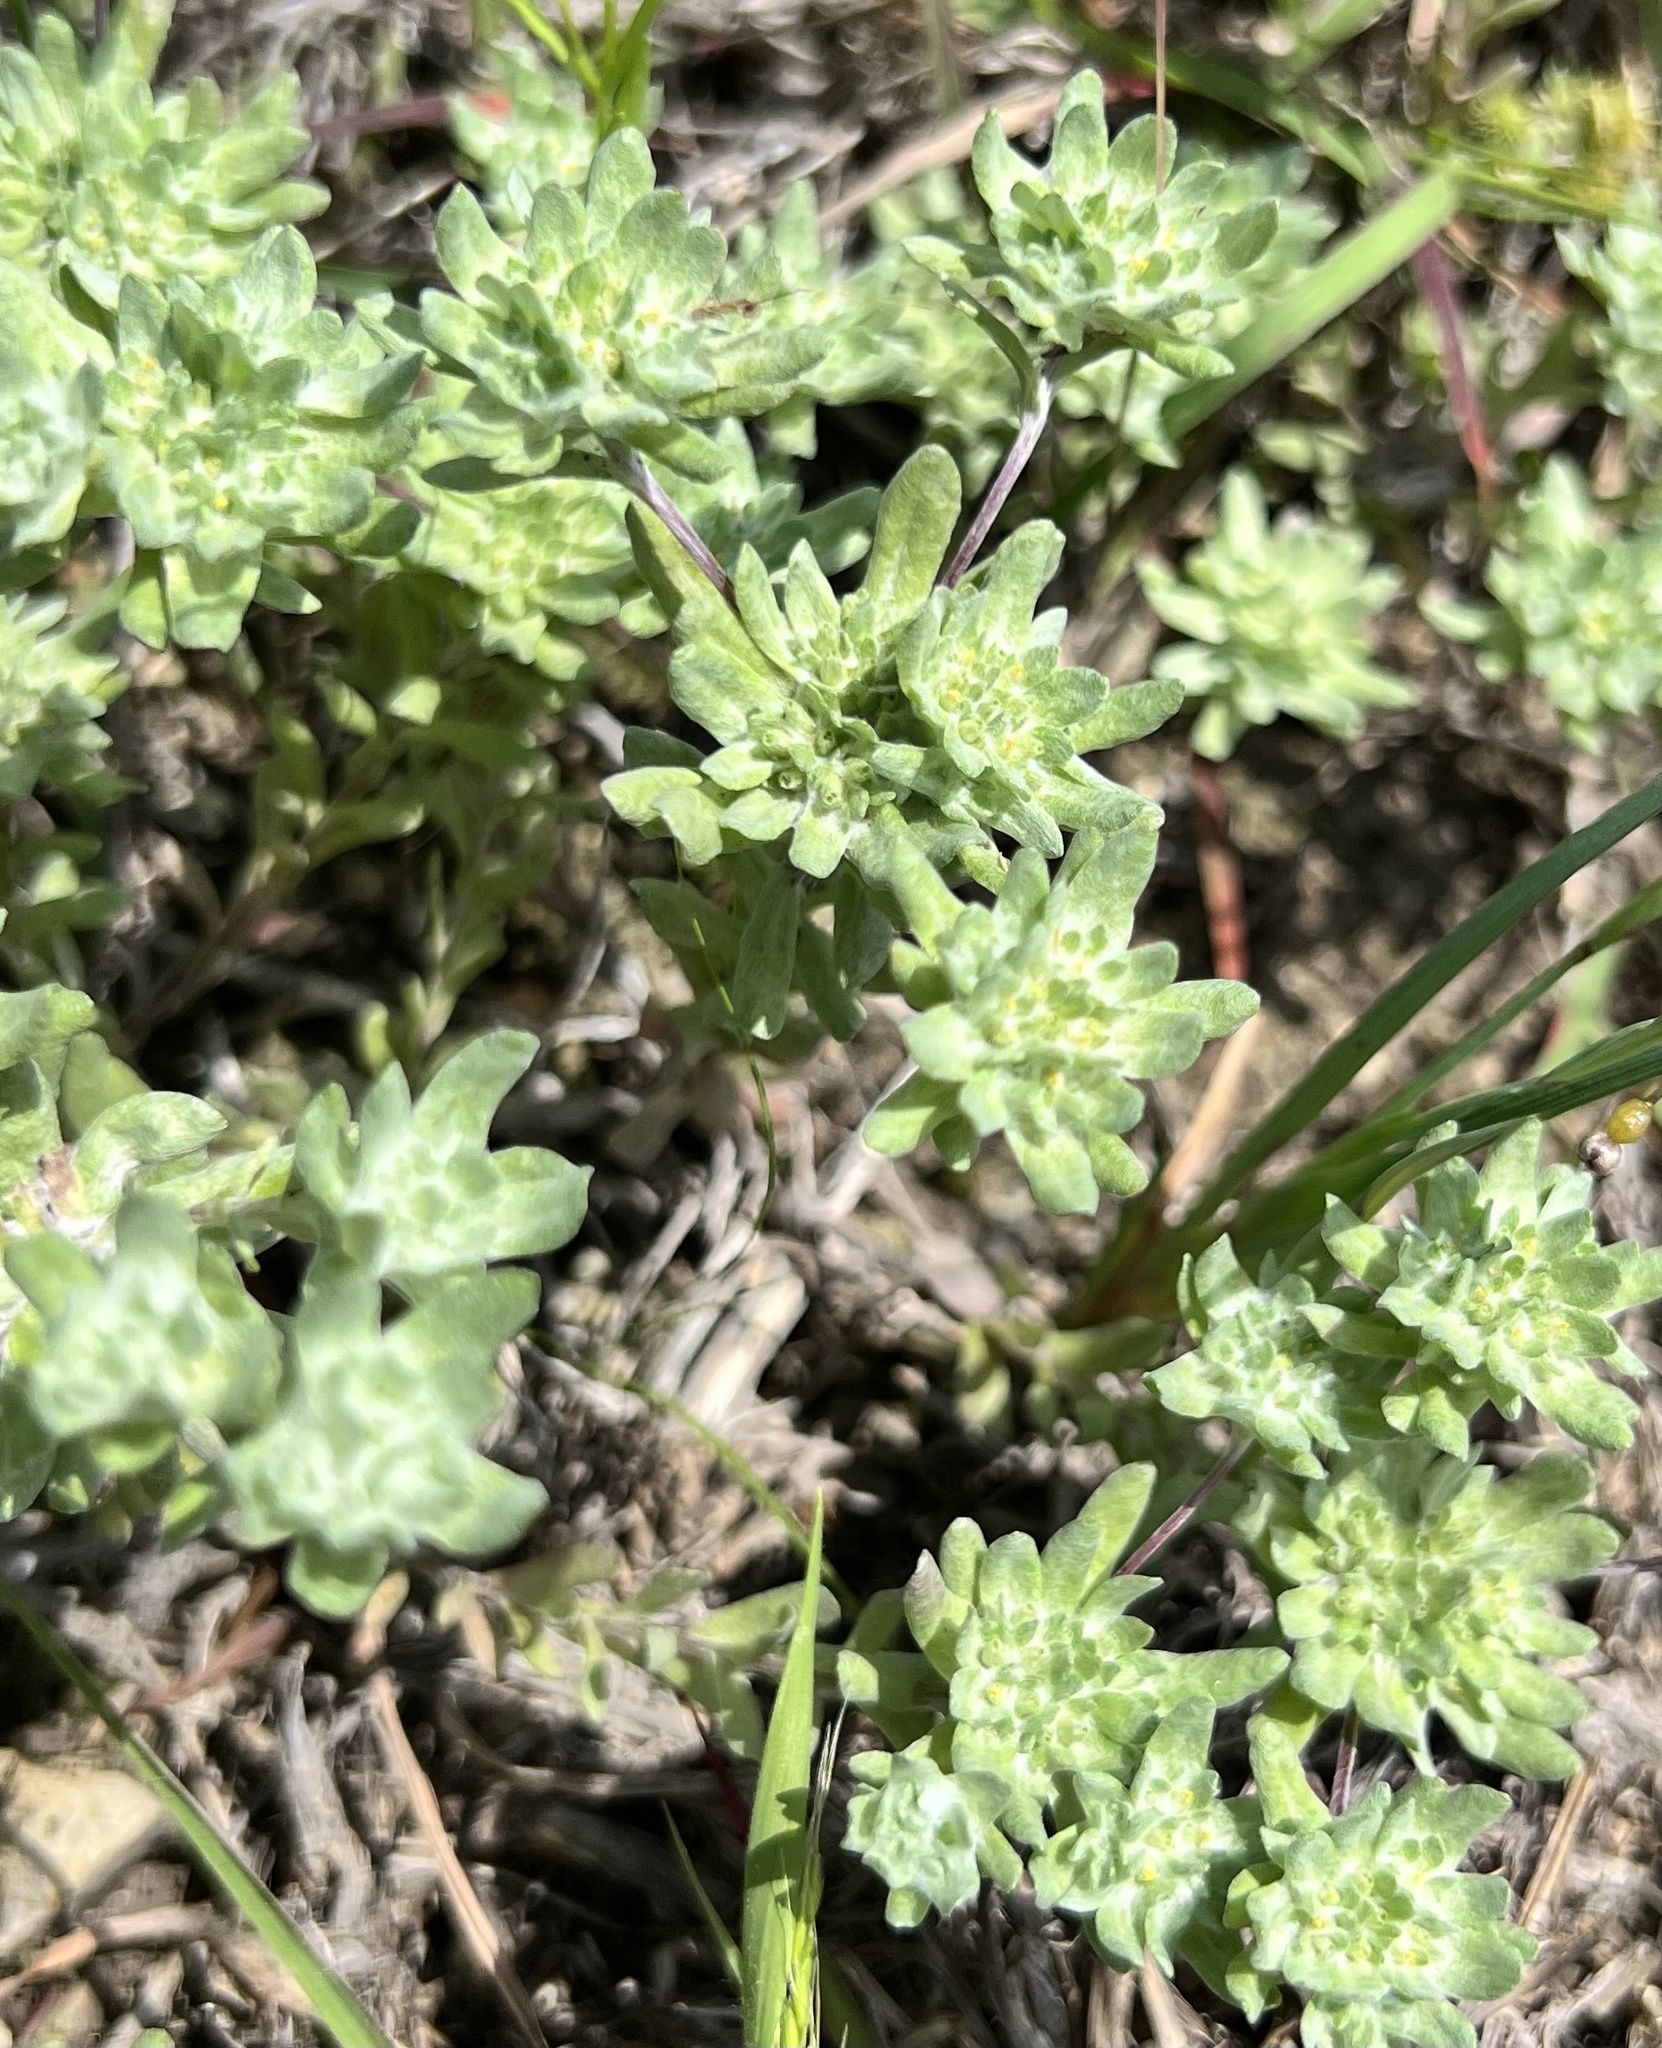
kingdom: Plantae
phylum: Tracheophyta
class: Magnoliopsida
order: Asterales
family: Asteraceae
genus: Diaperia
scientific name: Diaperia prolifera
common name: Big-head rabbit-tobacco
